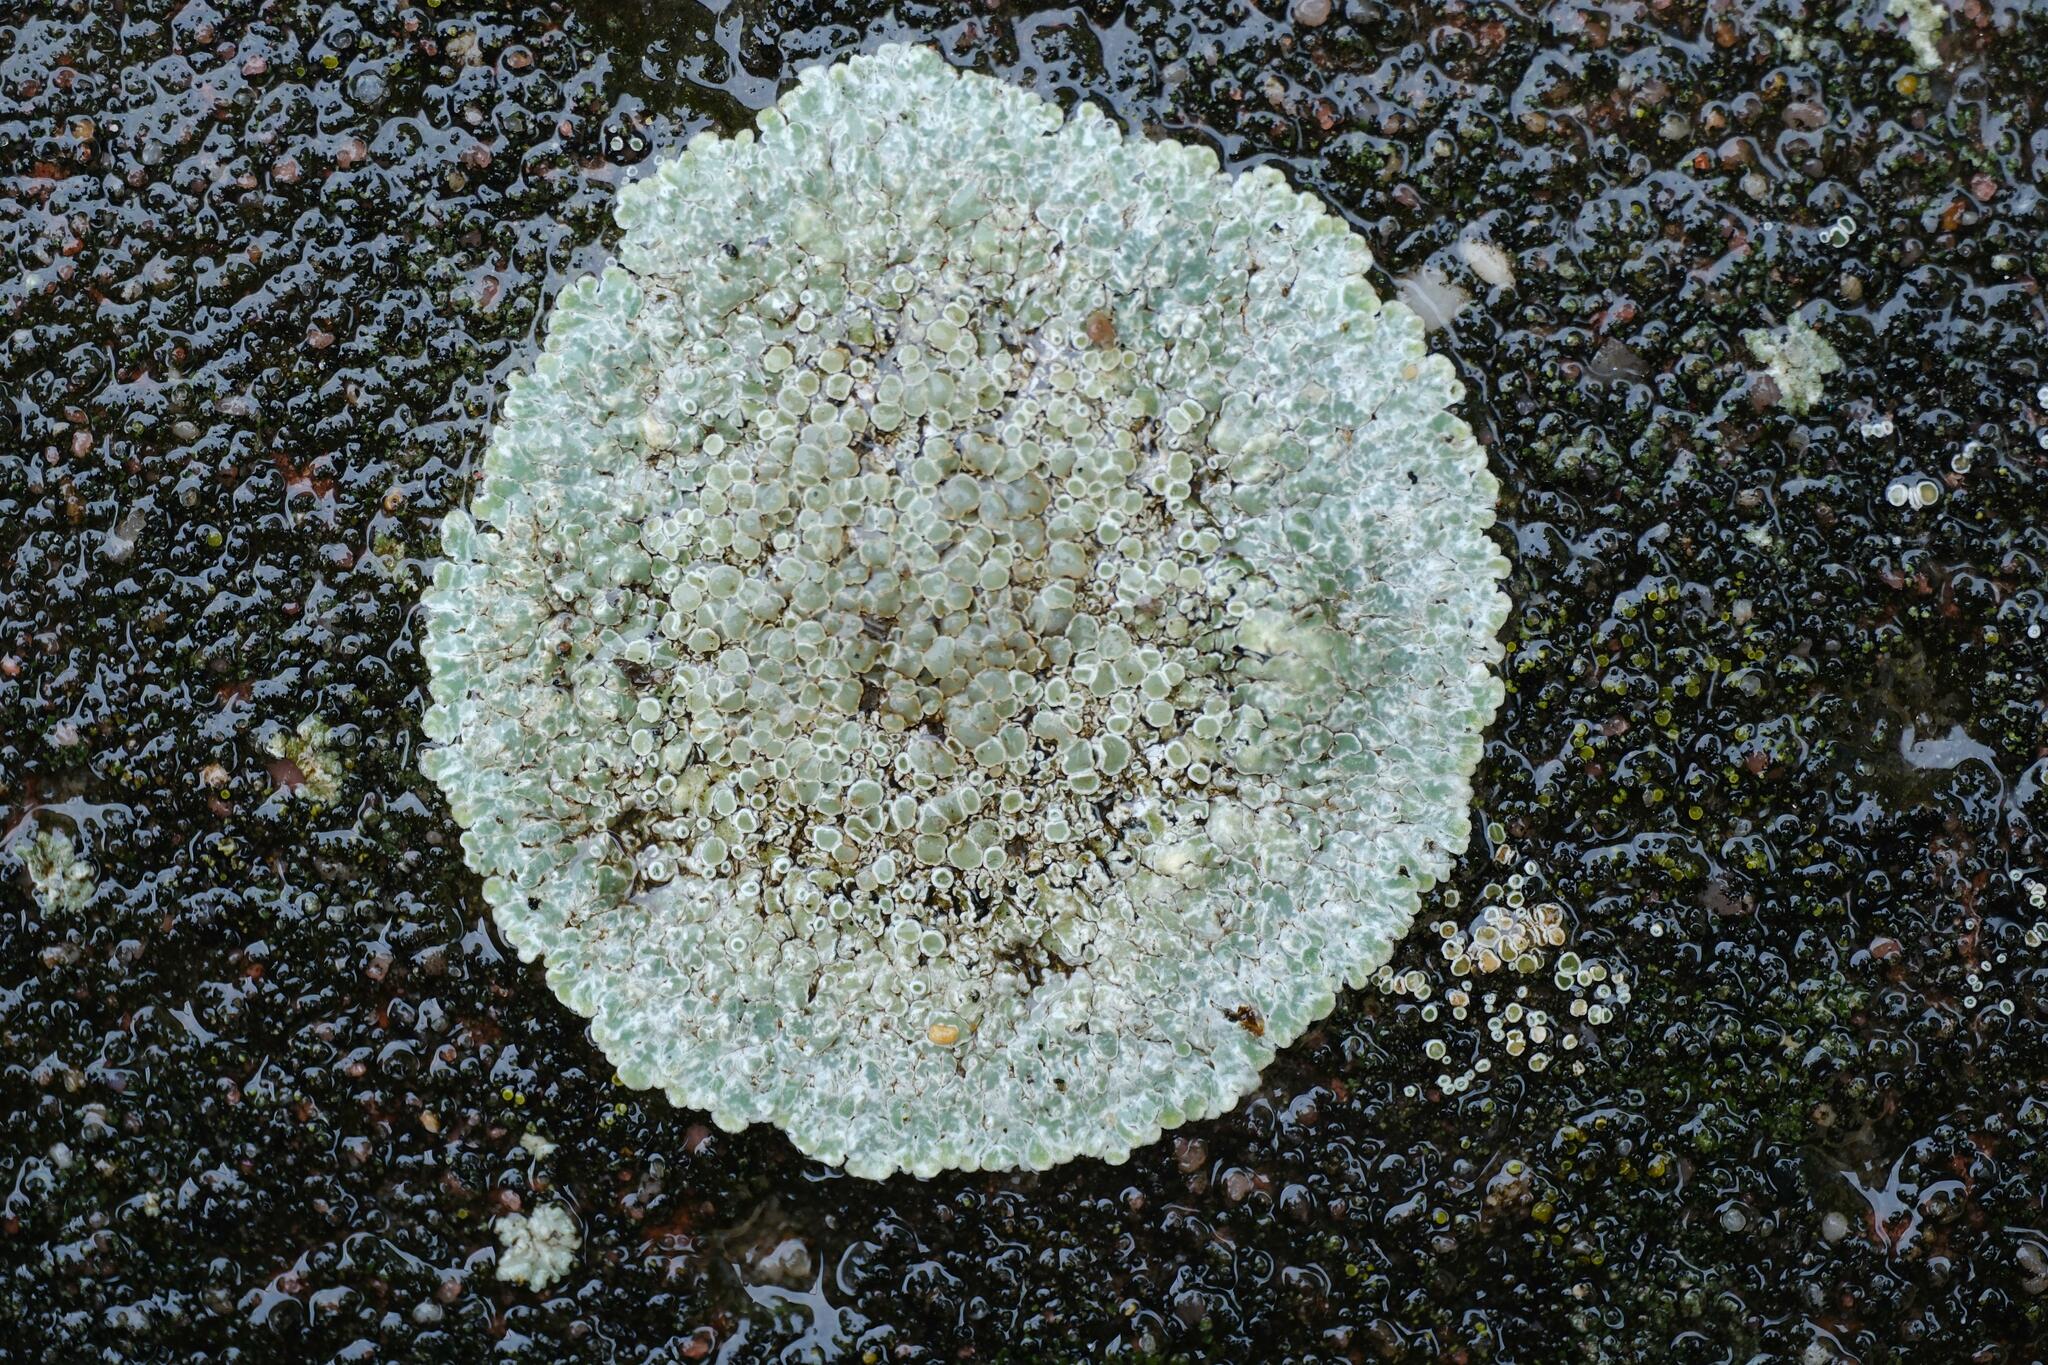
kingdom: Fungi
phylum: Ascomycota
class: Lecanoromycetes
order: Lecanorales
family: Lecanoraceae
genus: Protoparmeliopsis
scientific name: Protoparmeliopsis muralis
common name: Stonewall rim lichen
